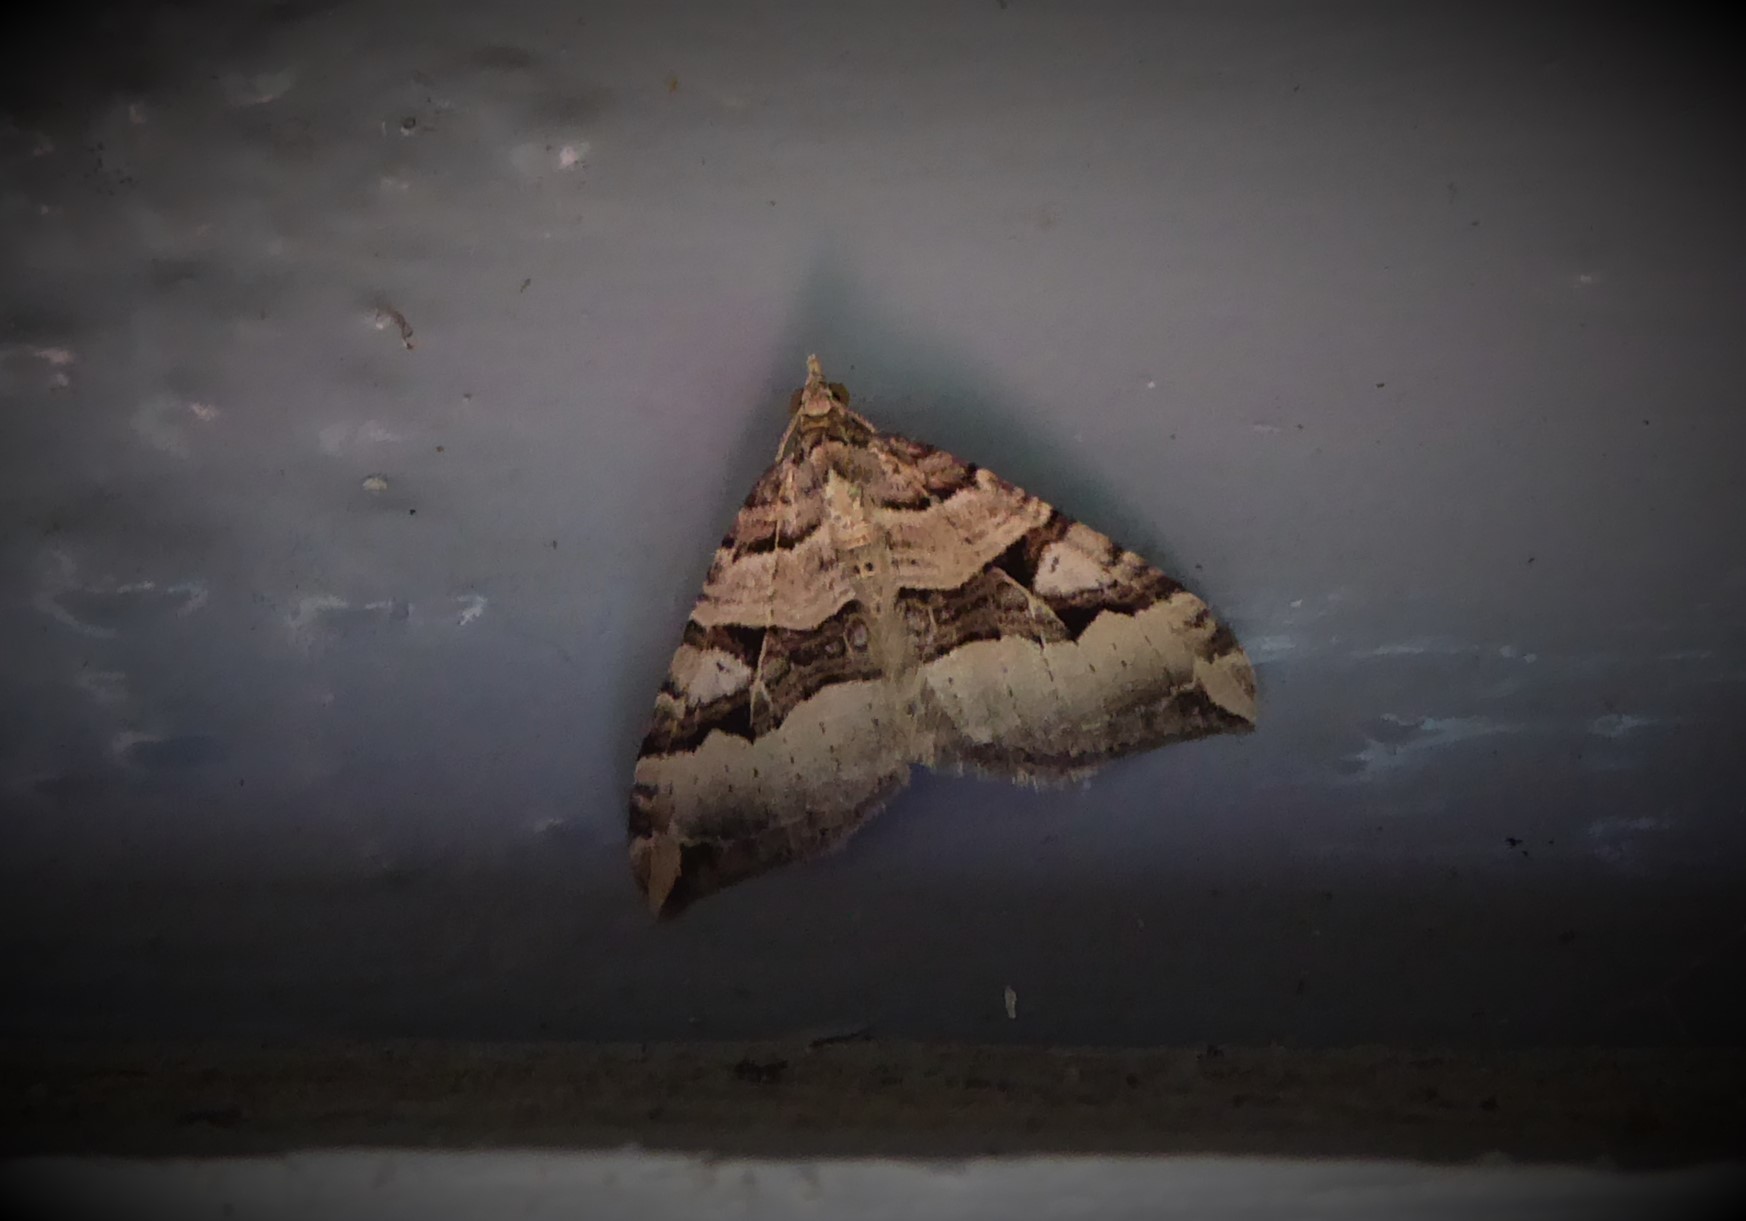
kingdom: Animalia
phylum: Arthropoda
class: Insecta
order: Lepidoptera
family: Geometridae
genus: Xanthorhoe
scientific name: Xanthorhoe semifissata
